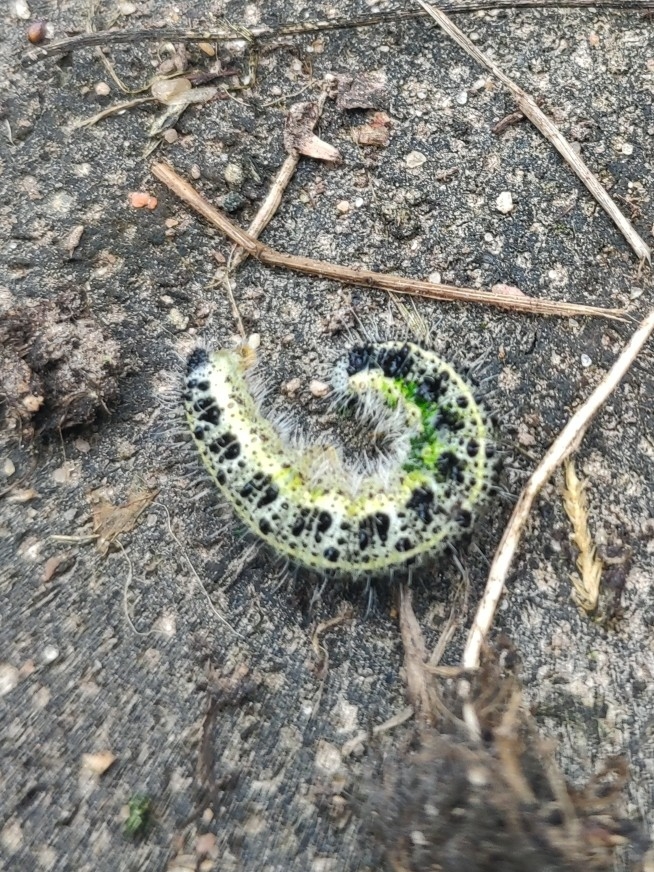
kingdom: Animalia
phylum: Arthropoda
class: Insecta
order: Lepidoptera
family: Pieridae
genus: Pieris
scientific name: Pieris brassicae
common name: Large white
